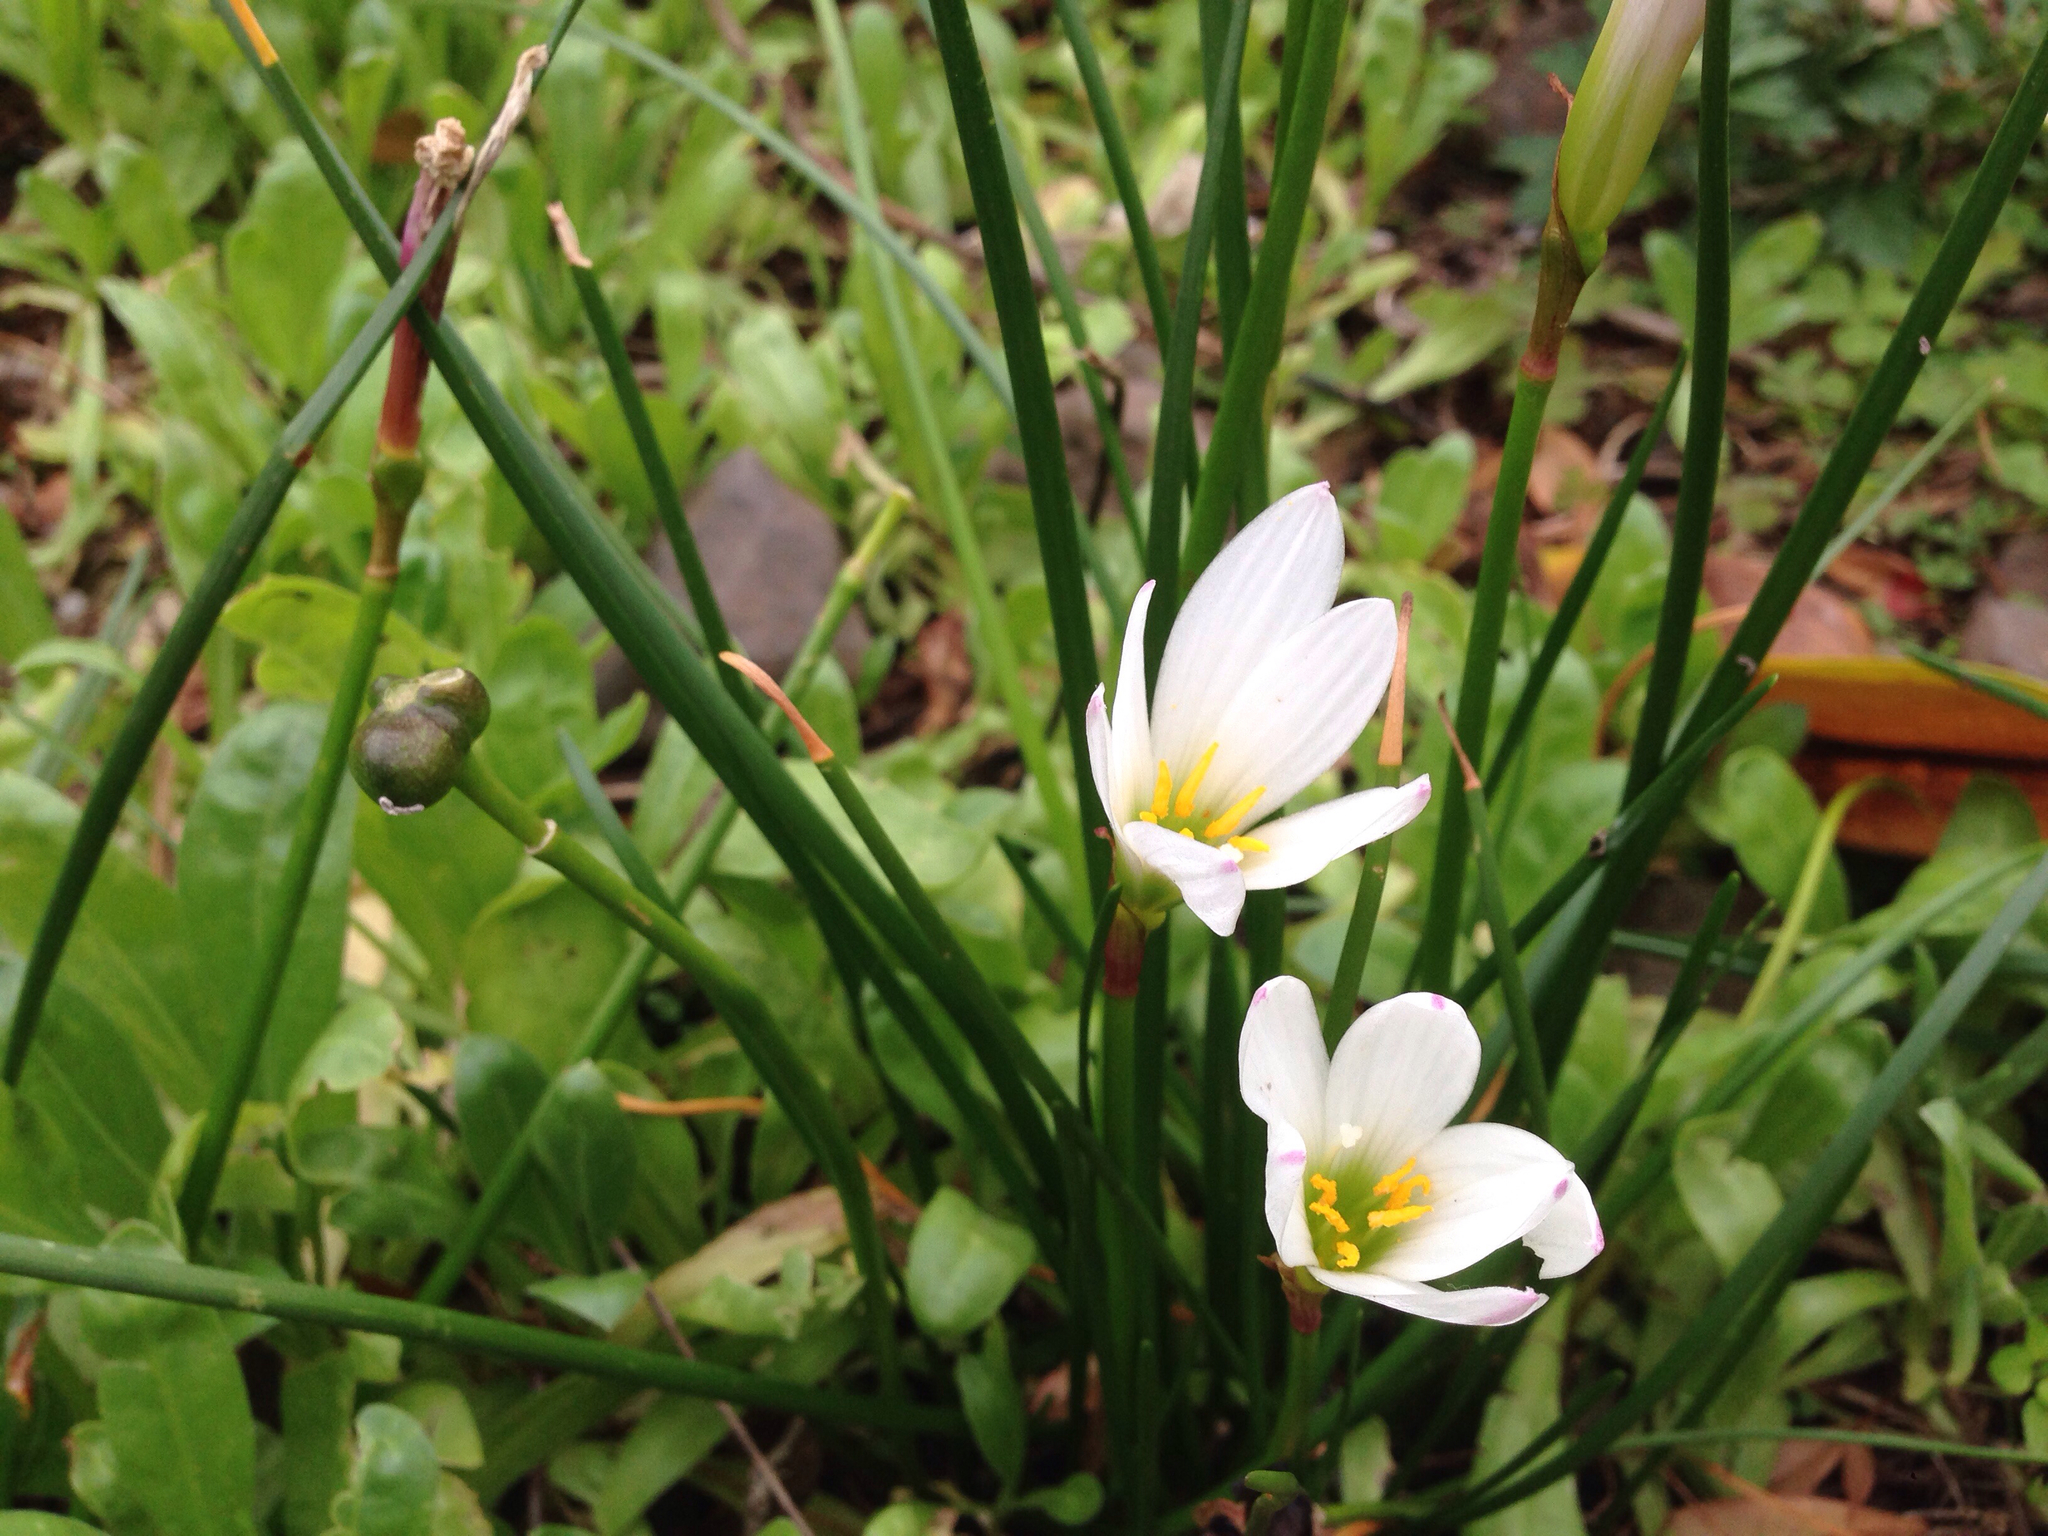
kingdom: Plantae
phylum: Tracheophyta
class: Liliopsida
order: Asparagales
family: Amaryllidaceae
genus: Zephyranthes
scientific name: Zephyranthes candida
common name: Autumn zephyrlily
